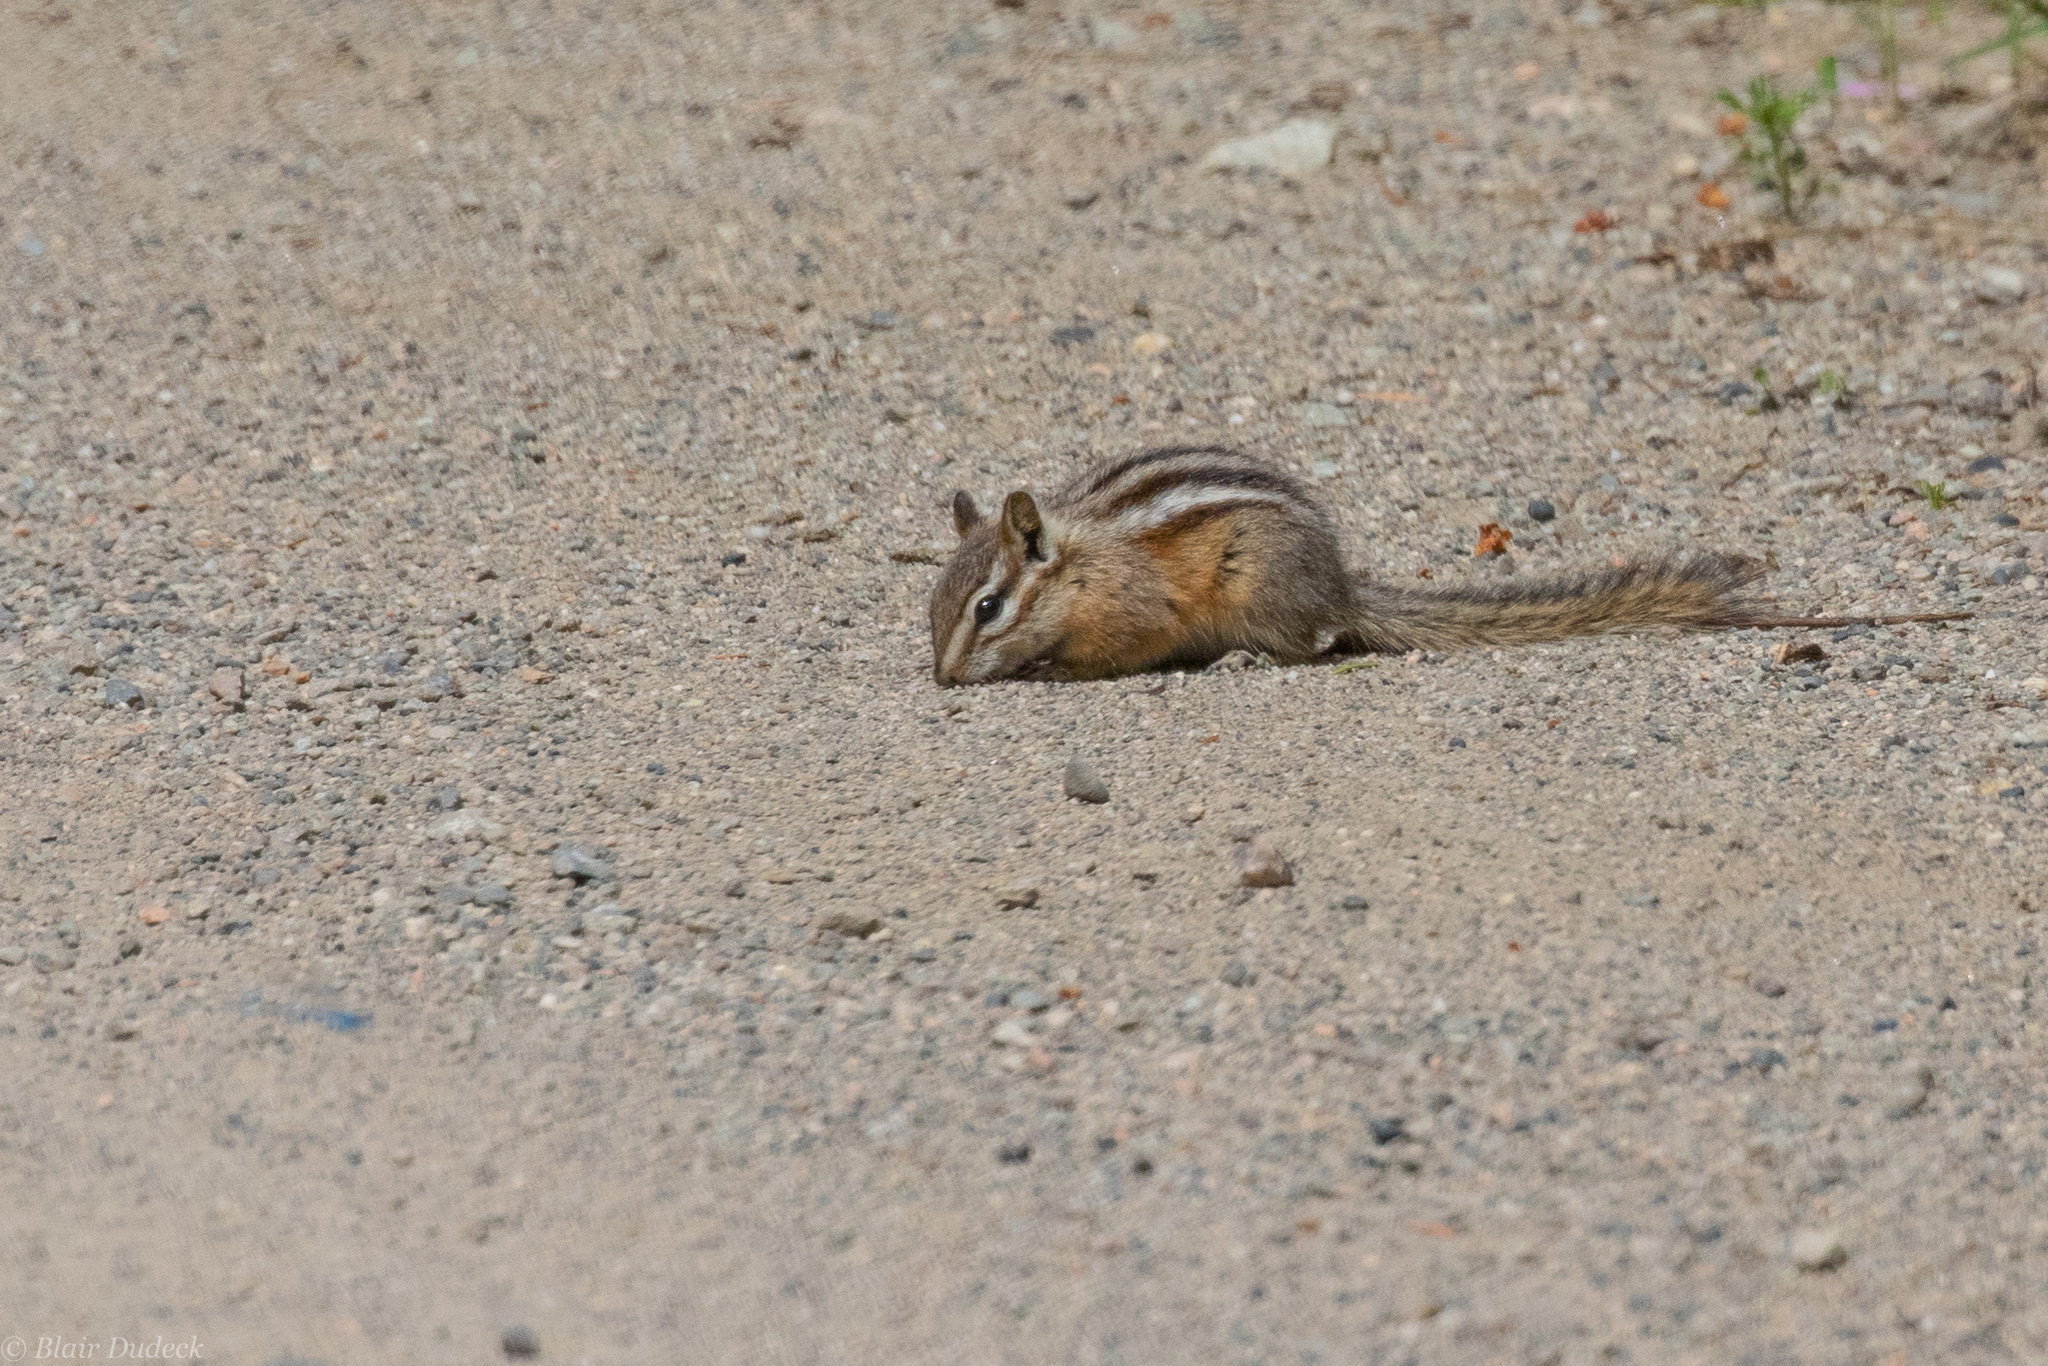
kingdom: Animalia
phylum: Chordata
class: Mammalia
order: Rodentia
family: Sciuridae
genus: Tamias
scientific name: Tamias amoenus
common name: Yellow-pine chipmunk
